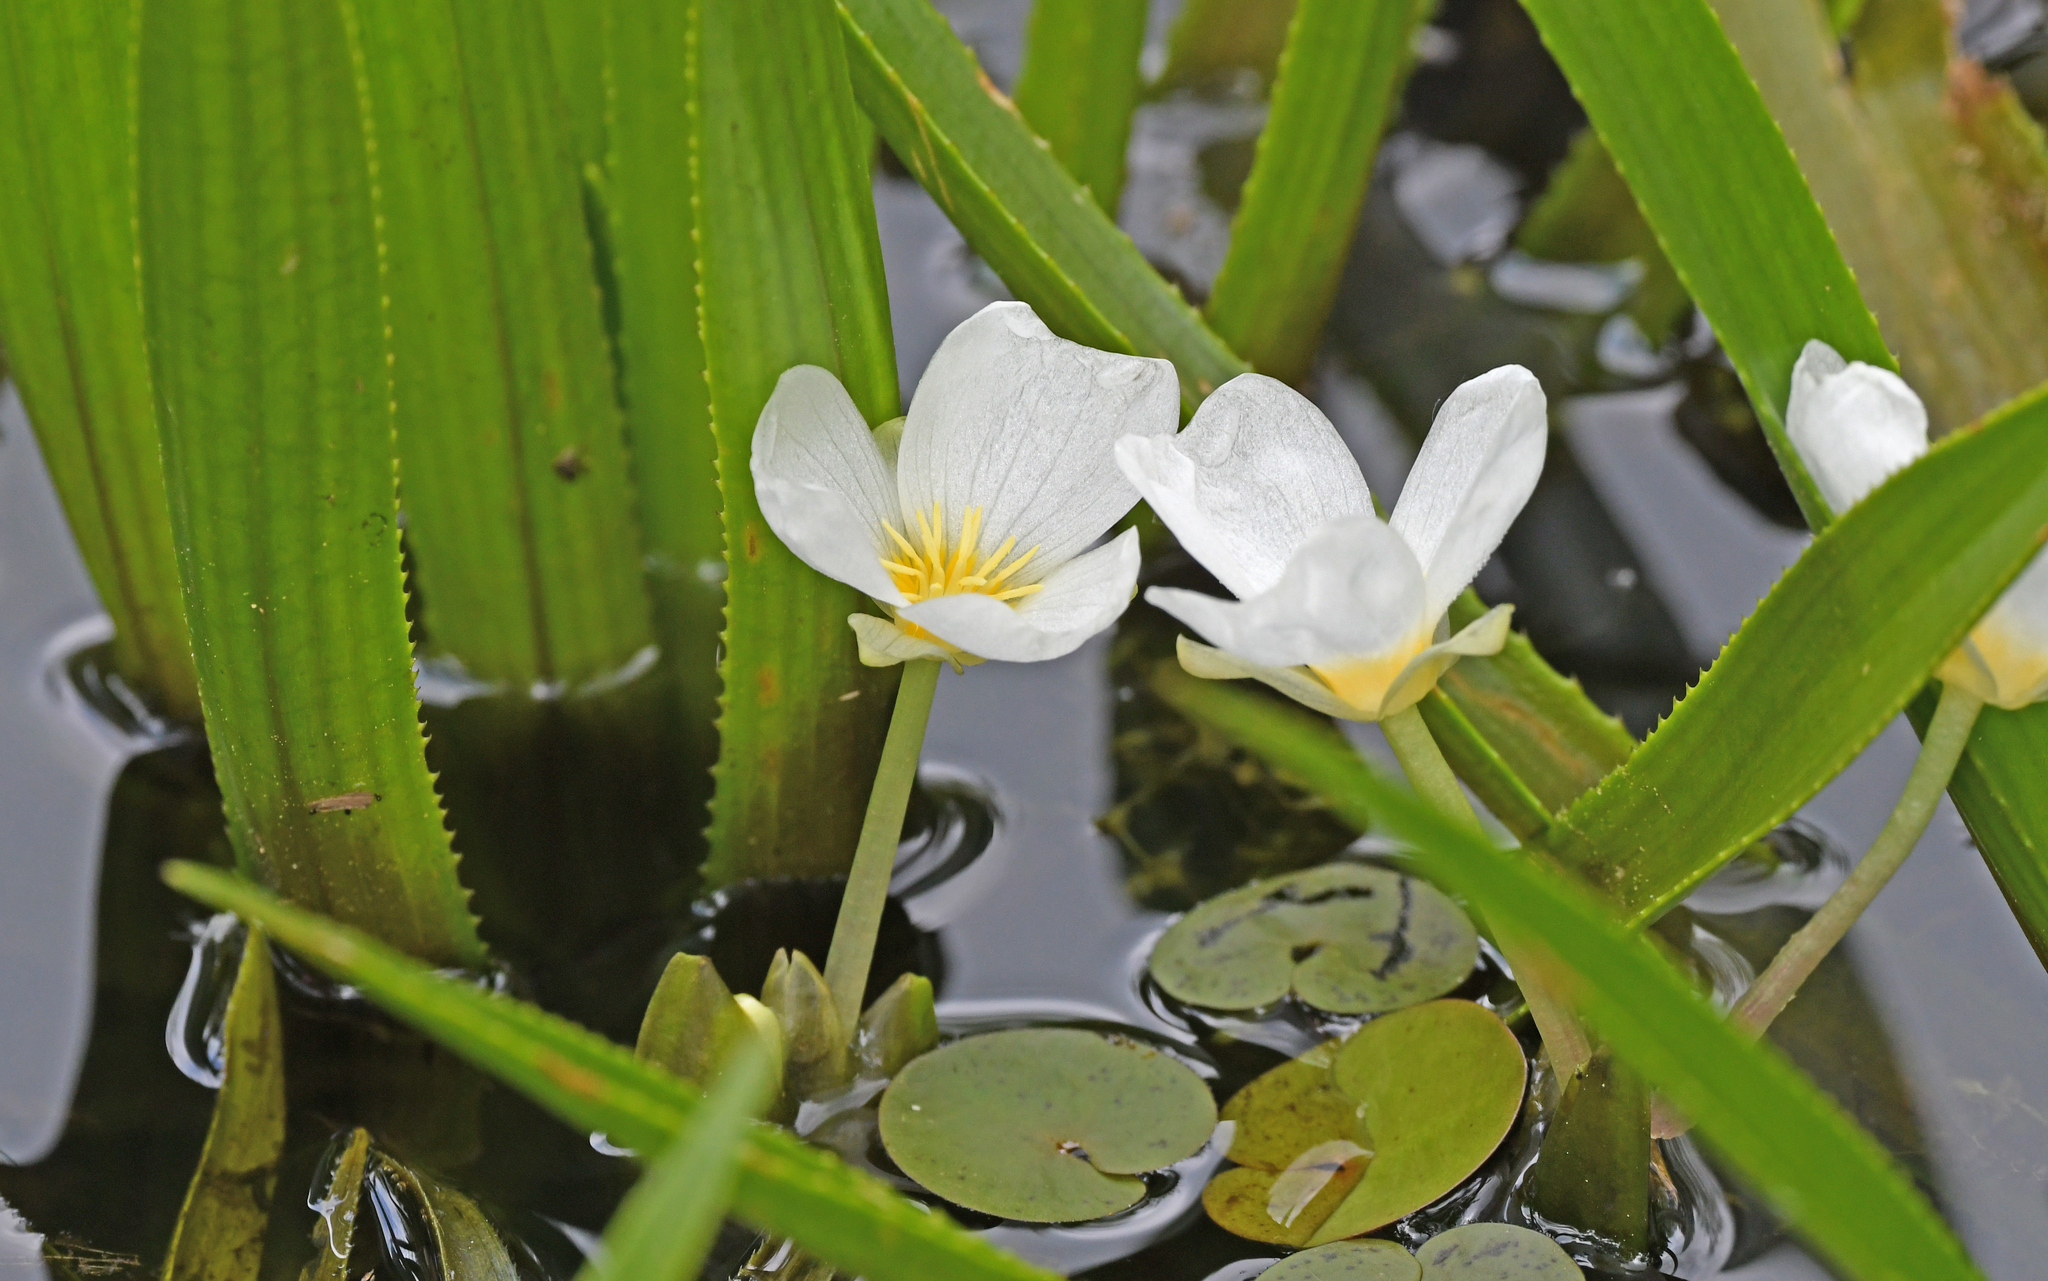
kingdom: Plantae
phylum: Tracheophyta
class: Liliopsida
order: Alismatales
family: Hydrocharitaceae
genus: Stratiotes
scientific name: Stratiotes aloides
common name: Water-soldier
